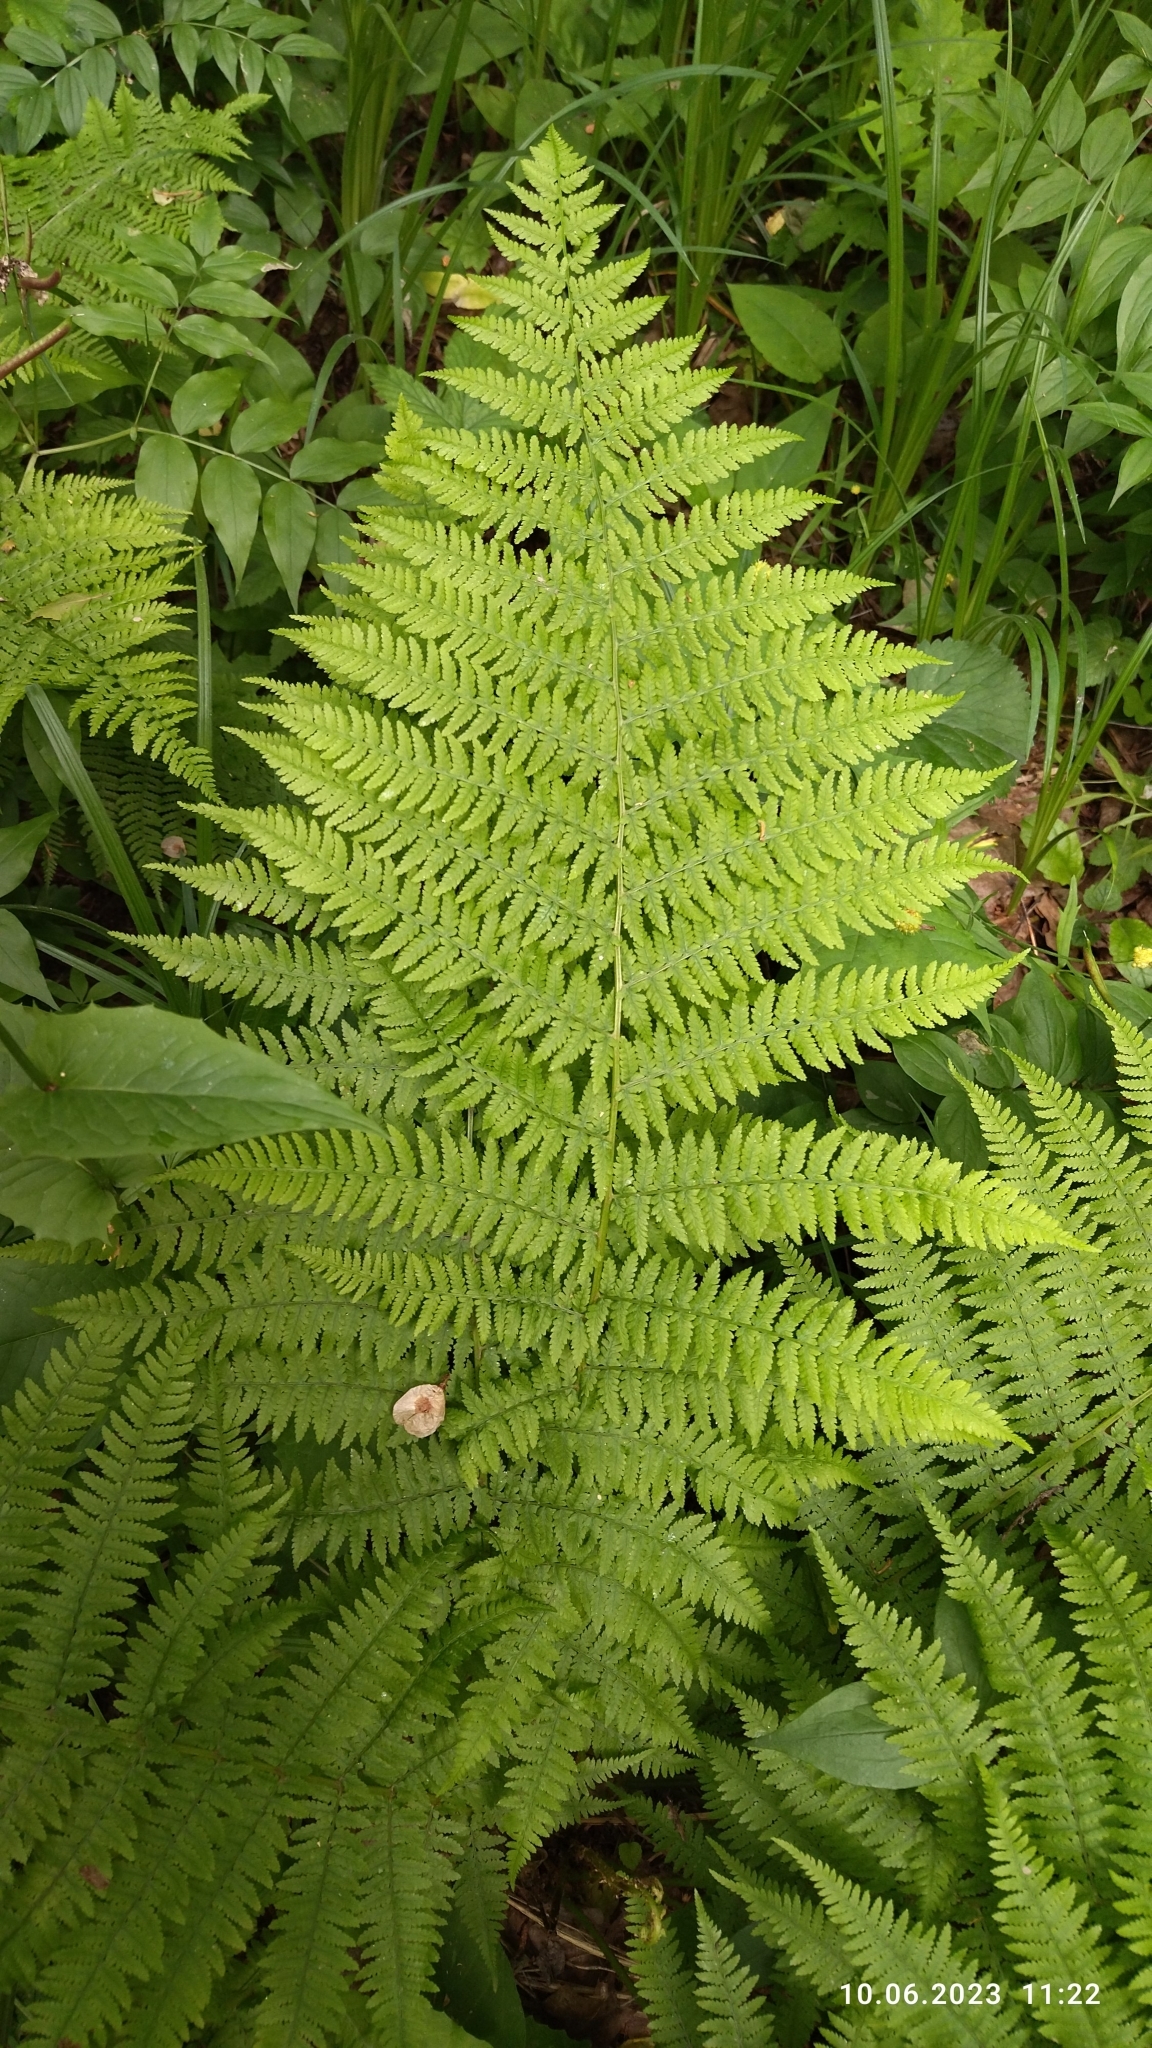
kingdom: Plantae
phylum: Tracheophyta
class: Polypodiopsida
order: Polypodiales
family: Athyriaceae
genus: Athyrium
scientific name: Athyrium filix-femina
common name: Lady fern
